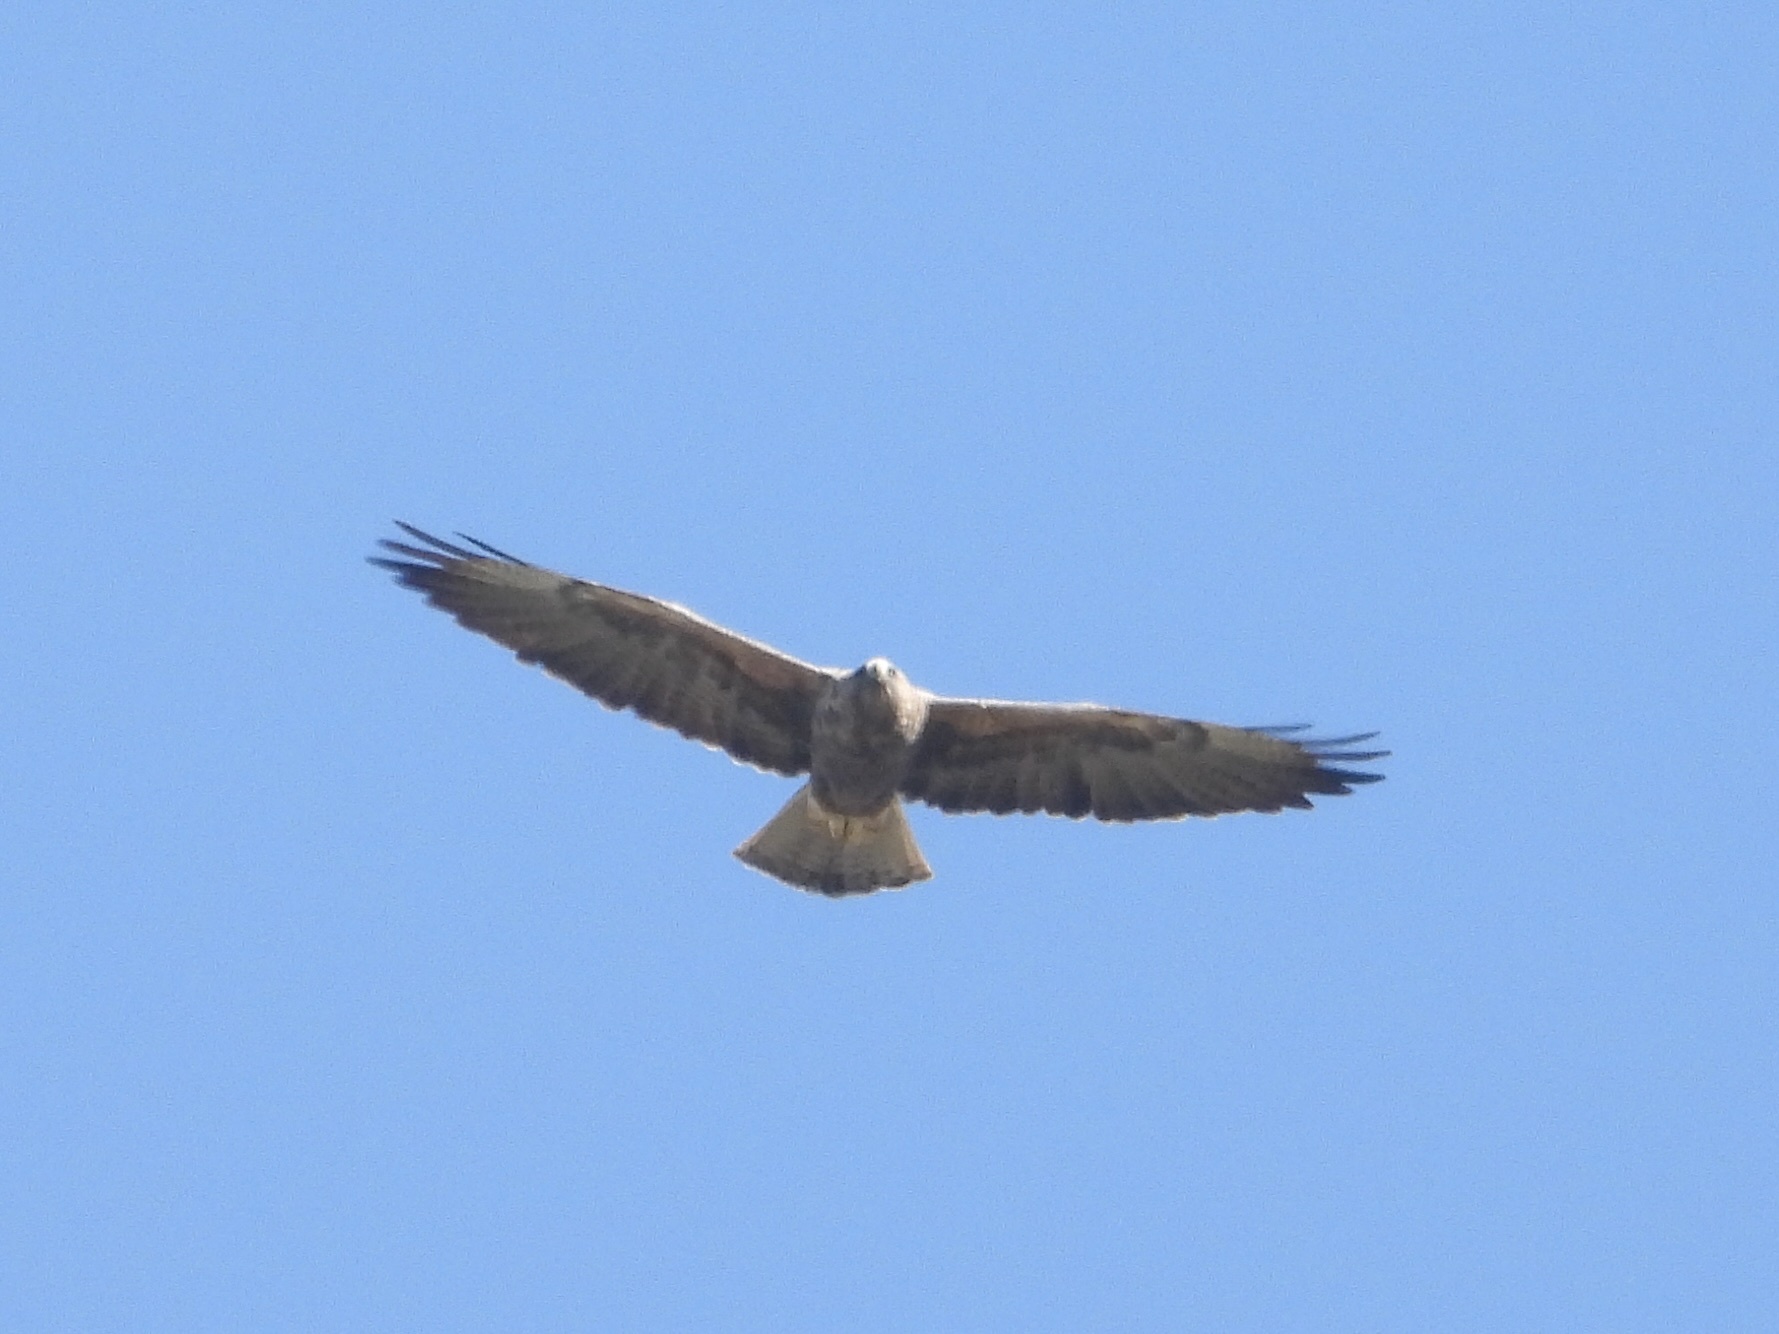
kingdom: Animalia
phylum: Chordata
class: Aves
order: Accipitriformes
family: Accipitridae
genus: Buteo
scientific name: Buteo swainsoni
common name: Swainson's hawk
